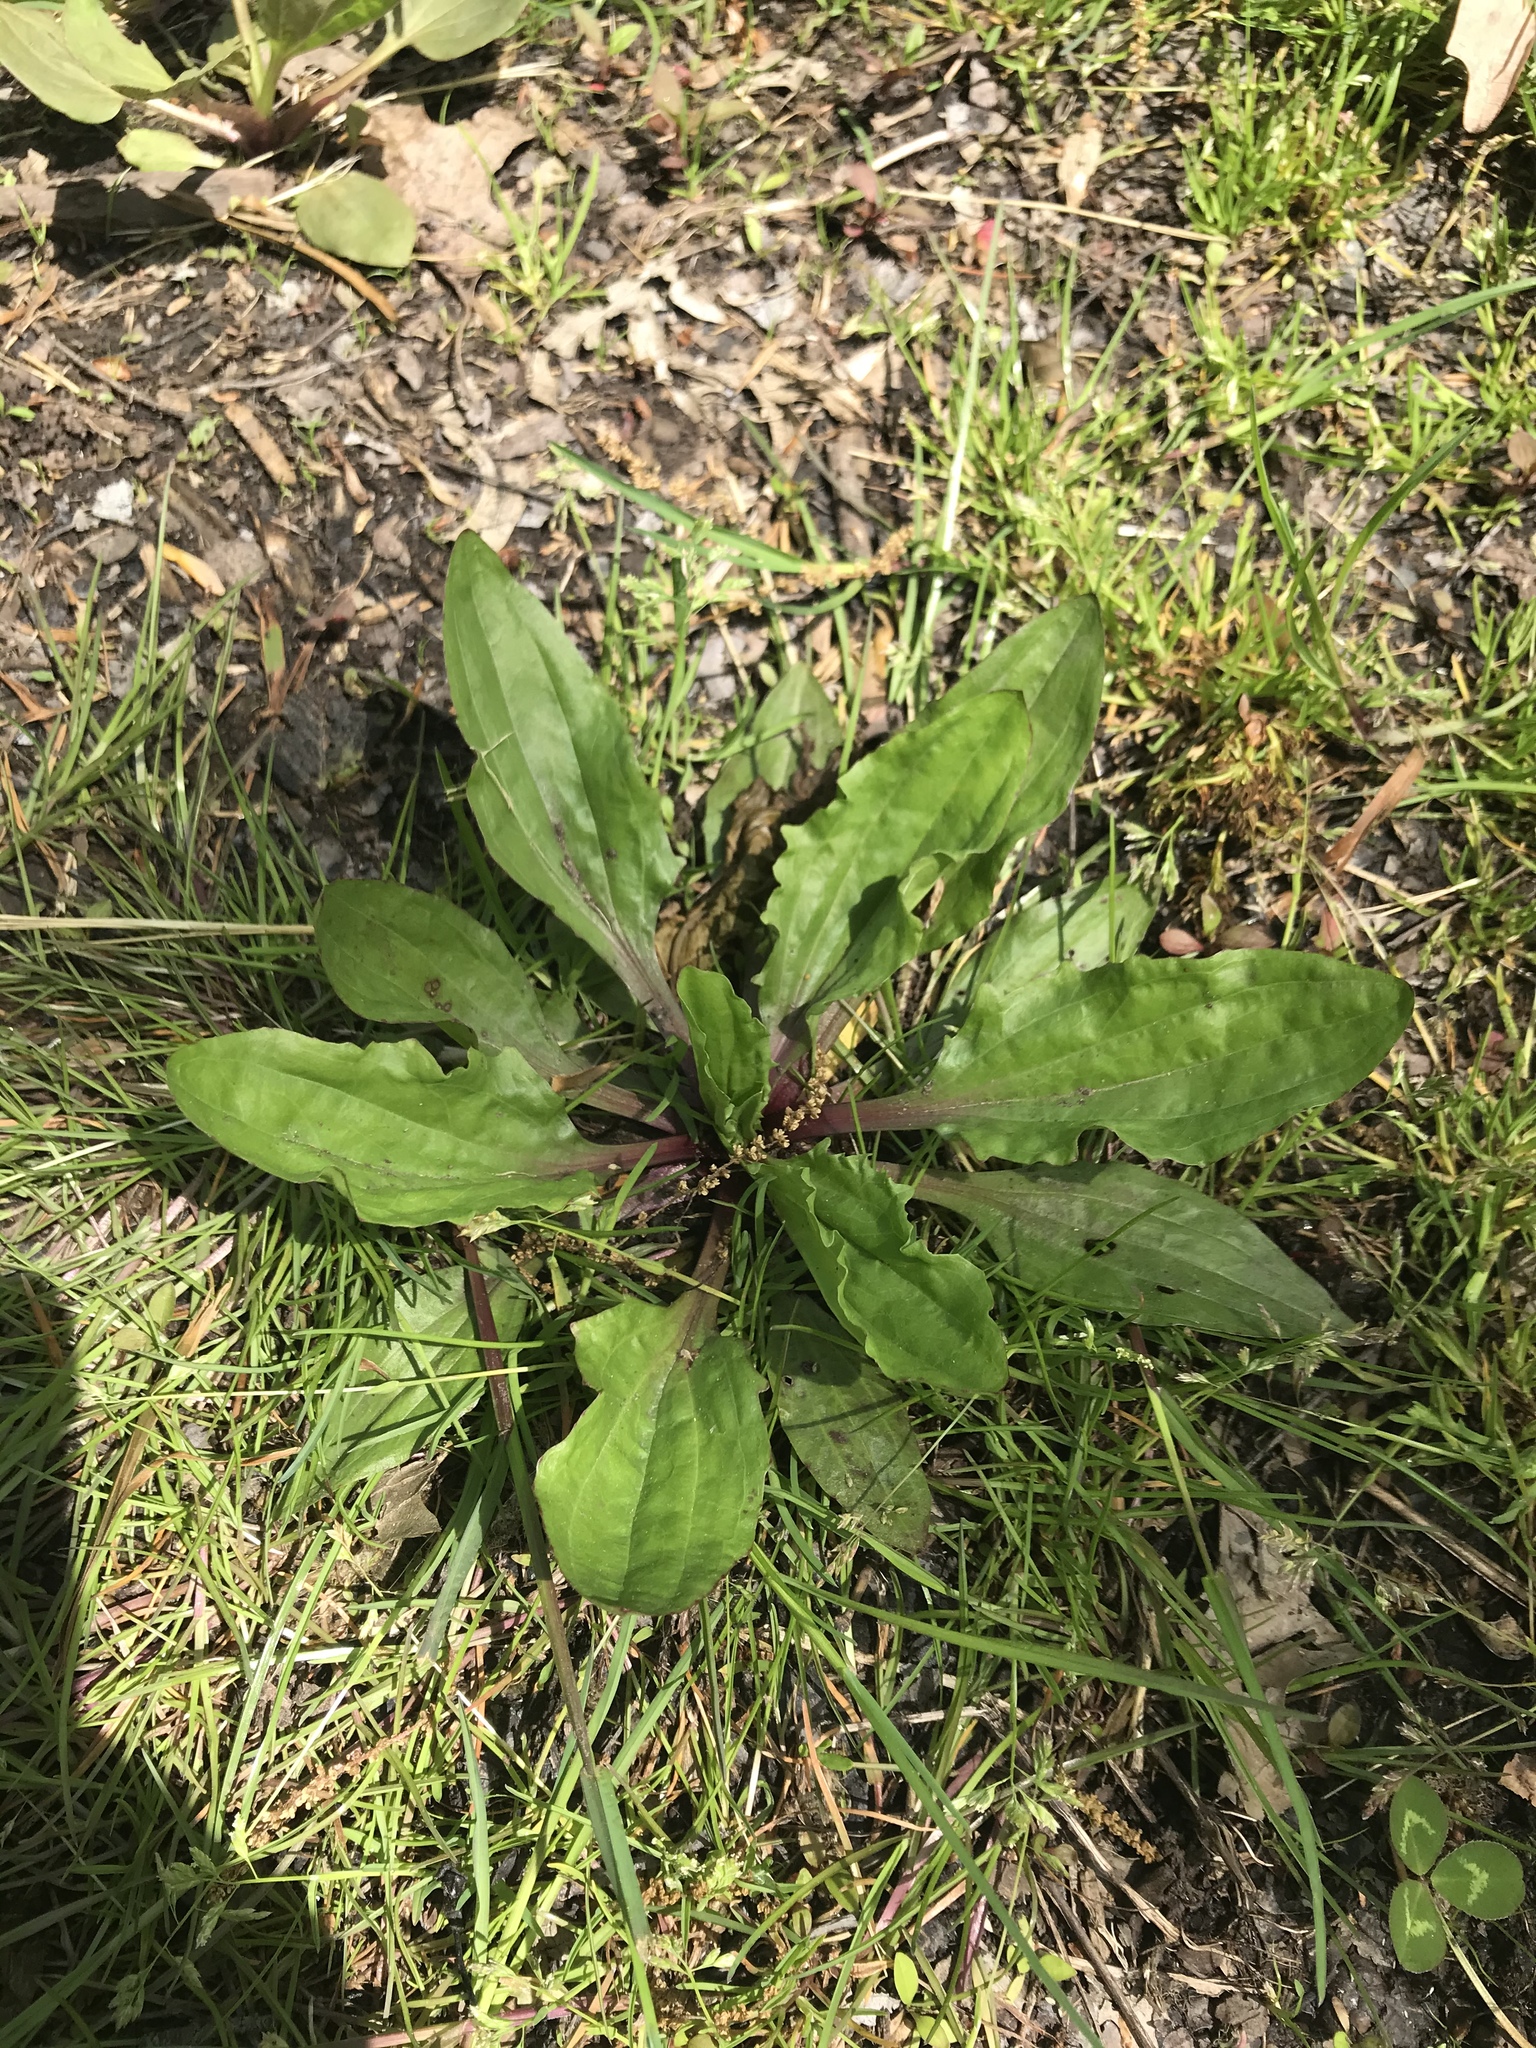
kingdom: Plantae
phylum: Tracheophyta
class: Magnoliopsida
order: Lamiales
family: Plantaginaceae
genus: Plantago
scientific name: Plantago rugelii
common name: American plantain
